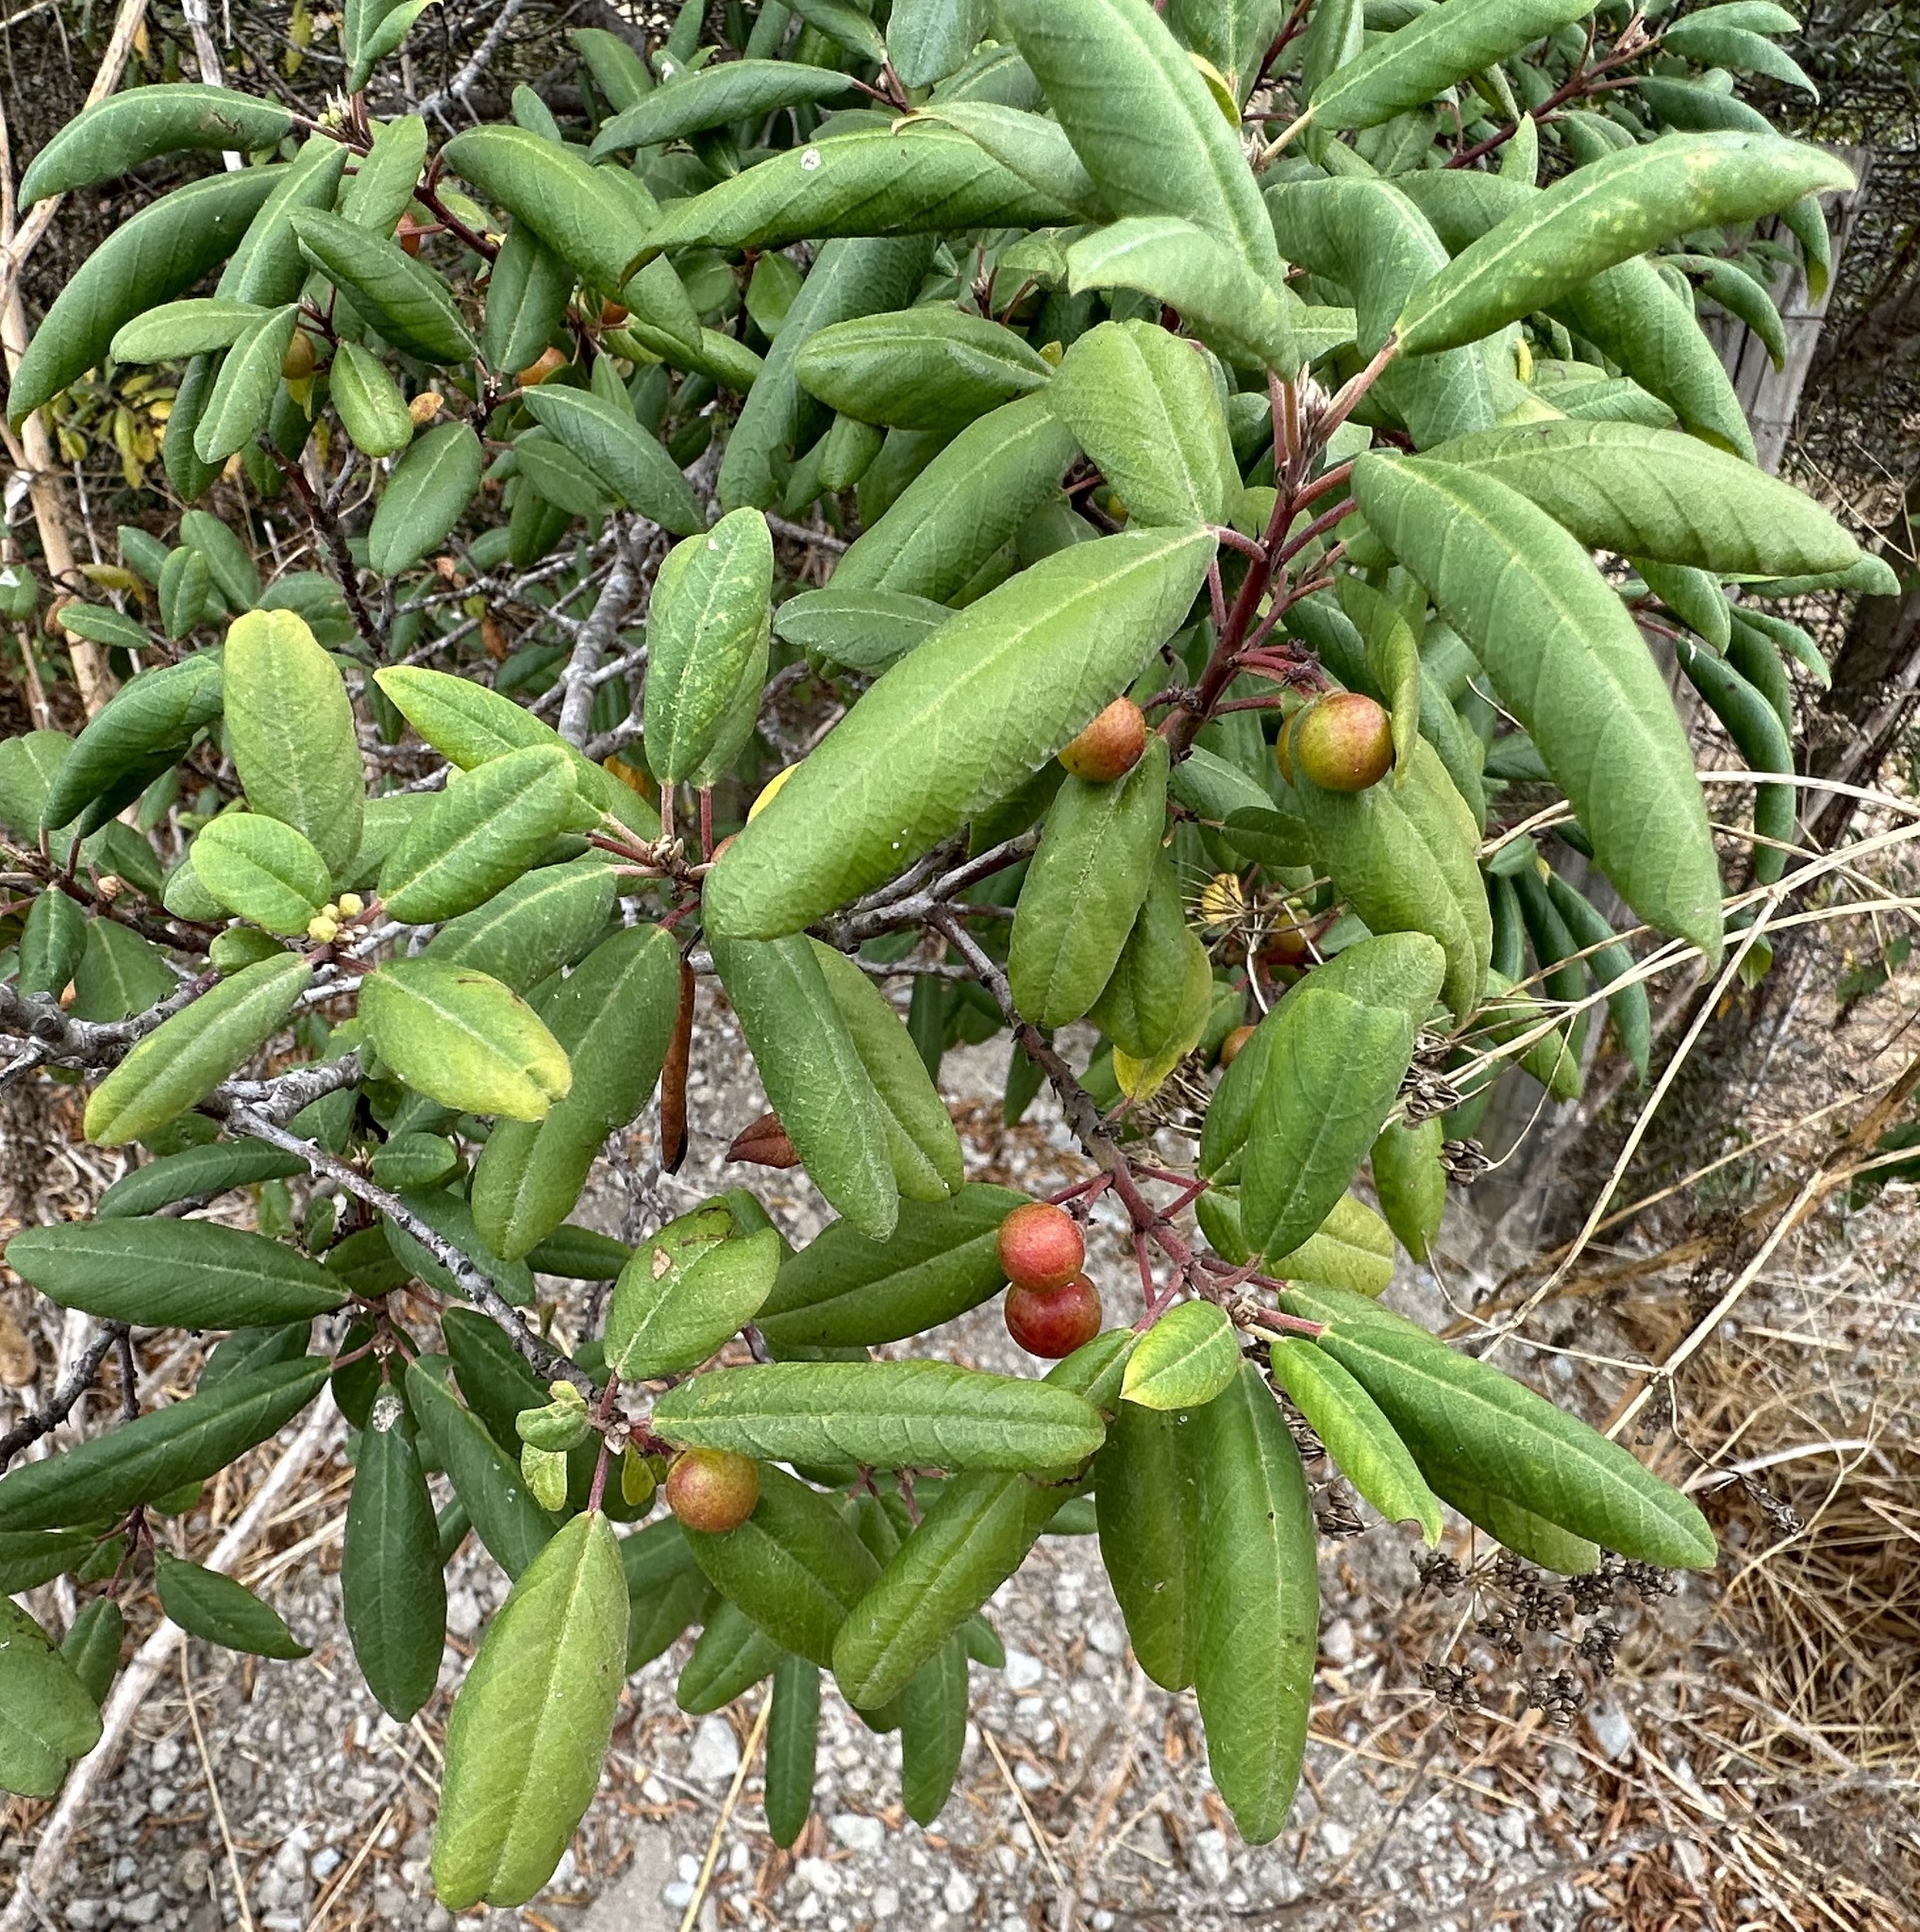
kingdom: Plantae
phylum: Tracheophyta
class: Magnoliopsida
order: Rosales
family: Rhamnaceae
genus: Frangula
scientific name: Frangula californica
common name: California buckthorn
